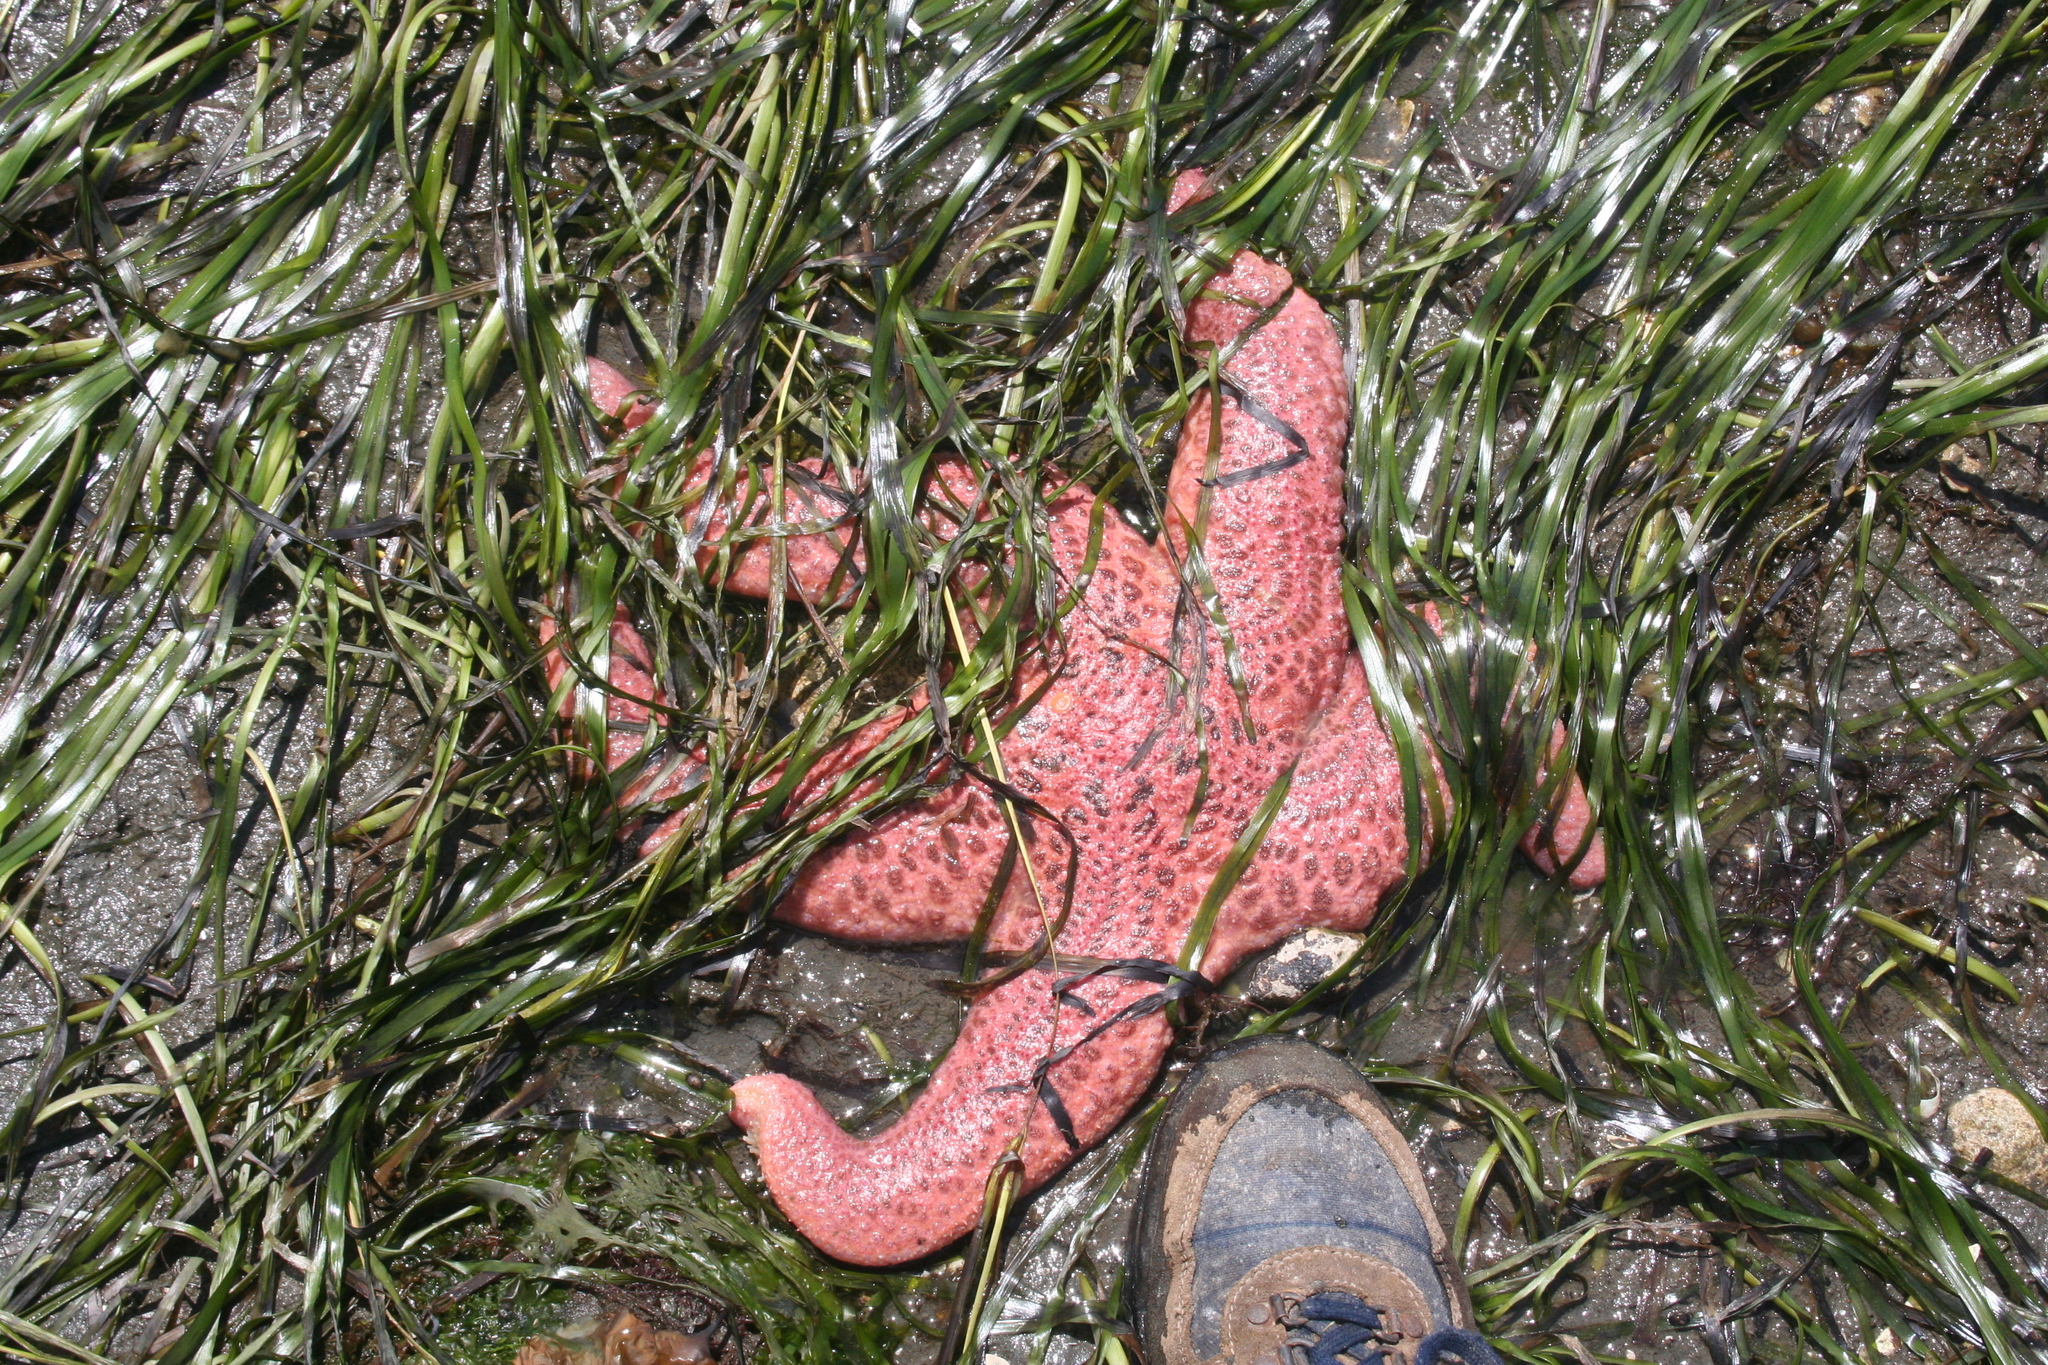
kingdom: Animalia
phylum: Echinodermata
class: Asteroidea
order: Forcipulatida
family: Asteriidae
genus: Pisaster
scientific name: Pisaster brevispinus
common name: Pink stars
